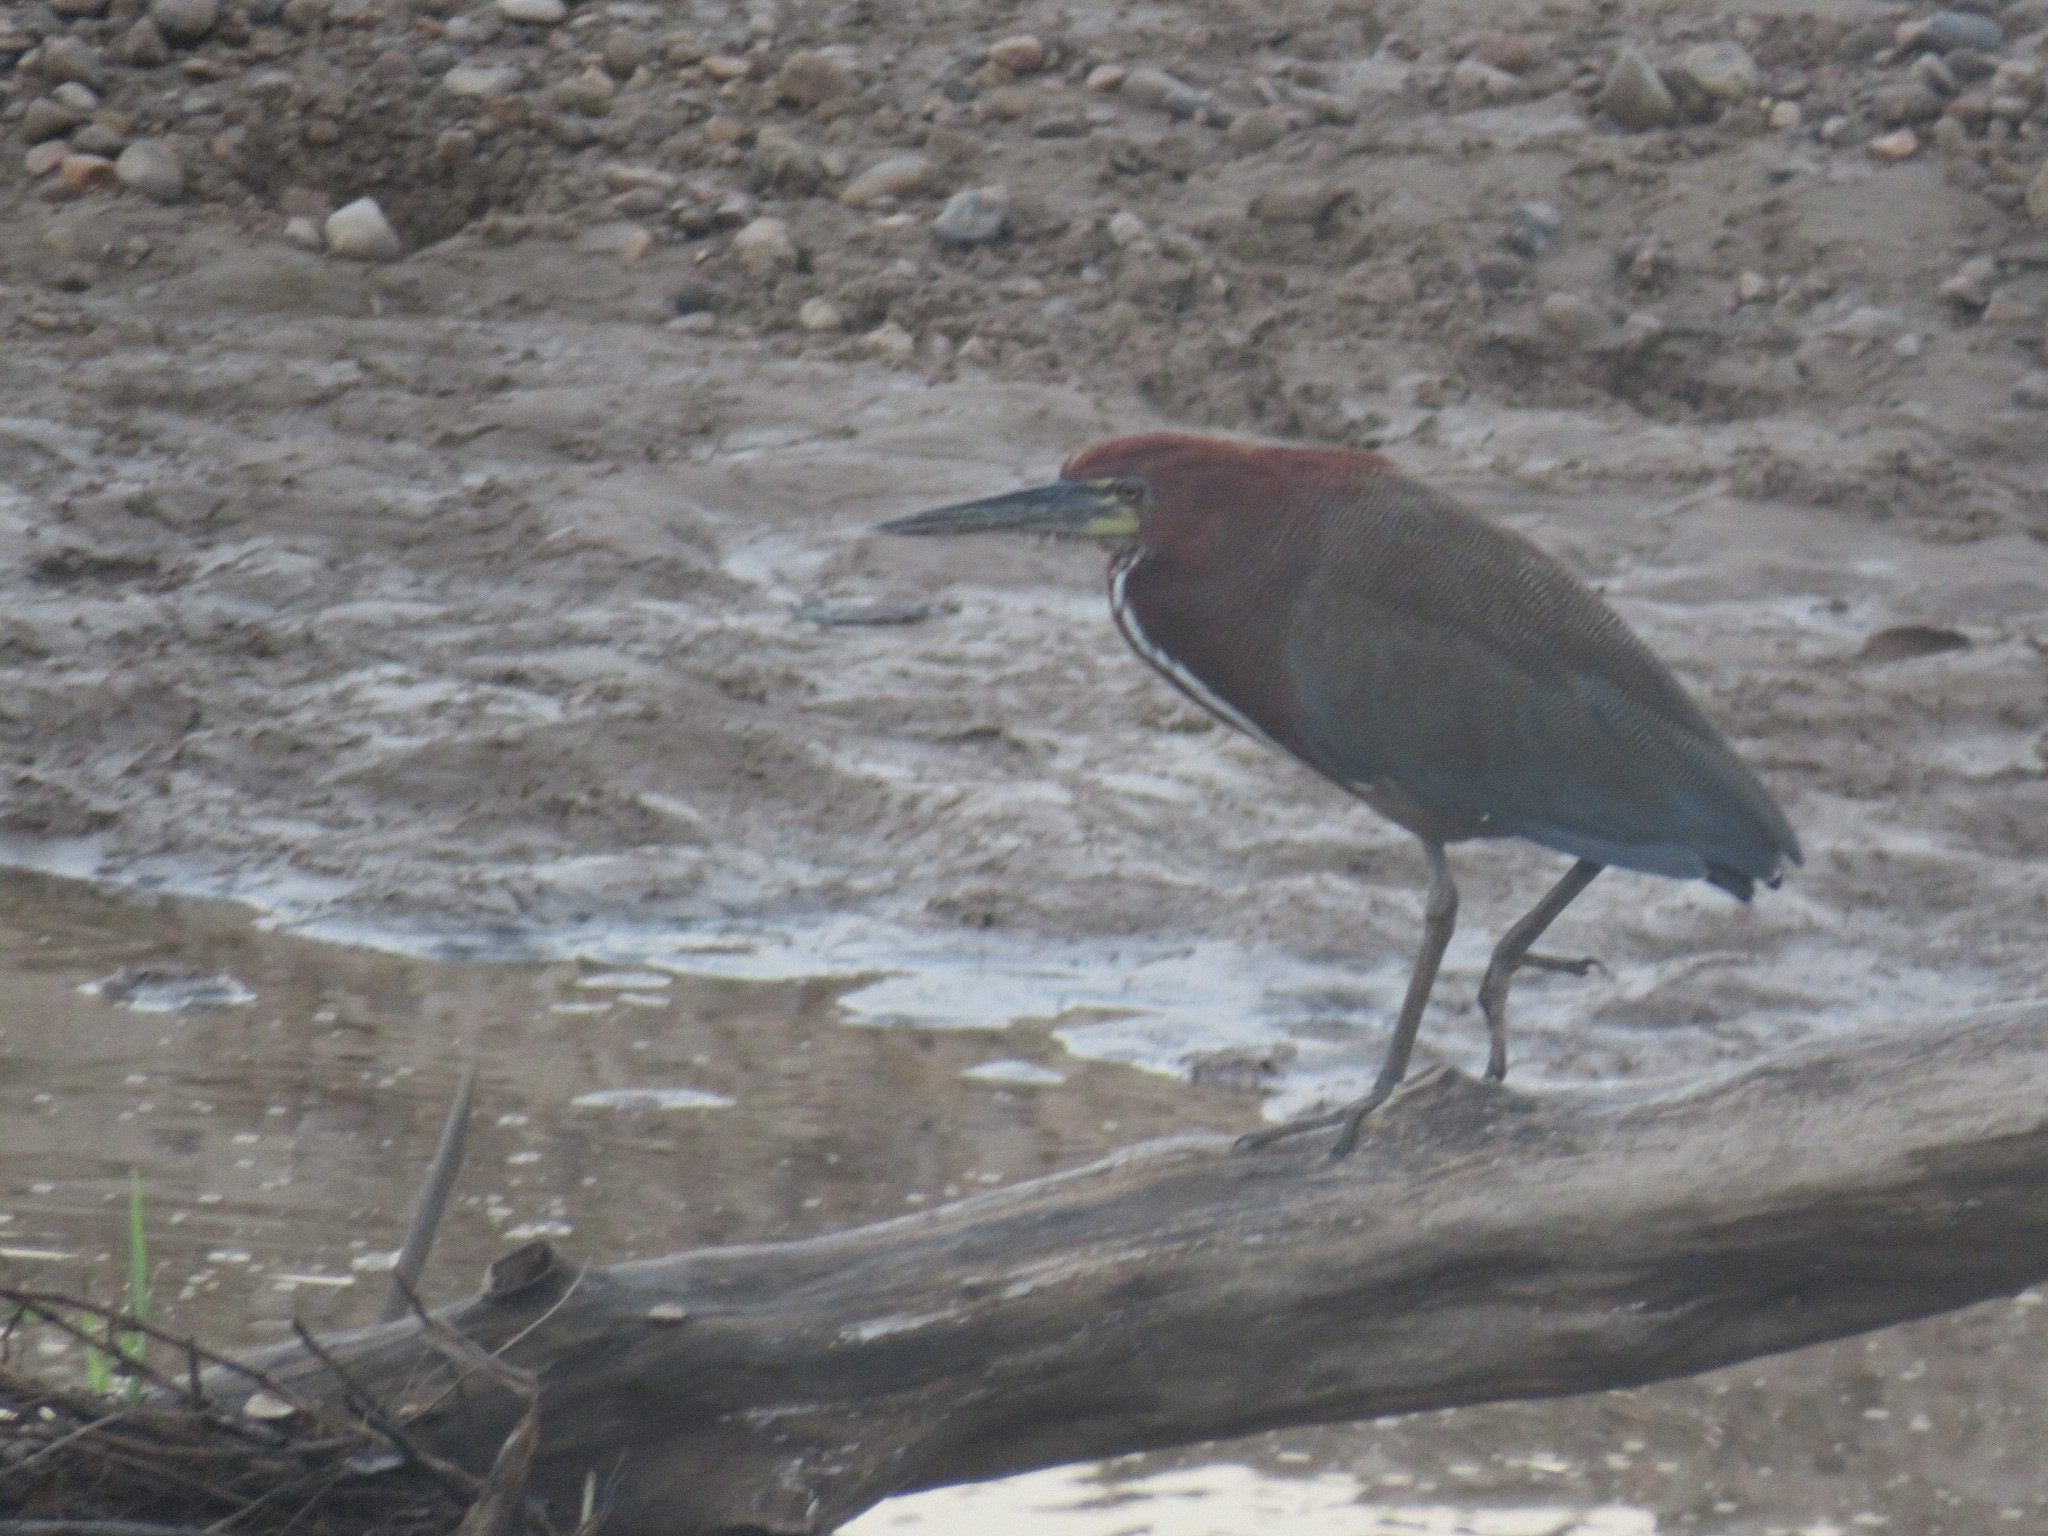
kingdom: Animalia
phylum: Chordata
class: Aves
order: Pelecaniformes
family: Ardeidae
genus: Tigrisoma
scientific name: Tigrisoma lineatum
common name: Rufescent tiger-heron
